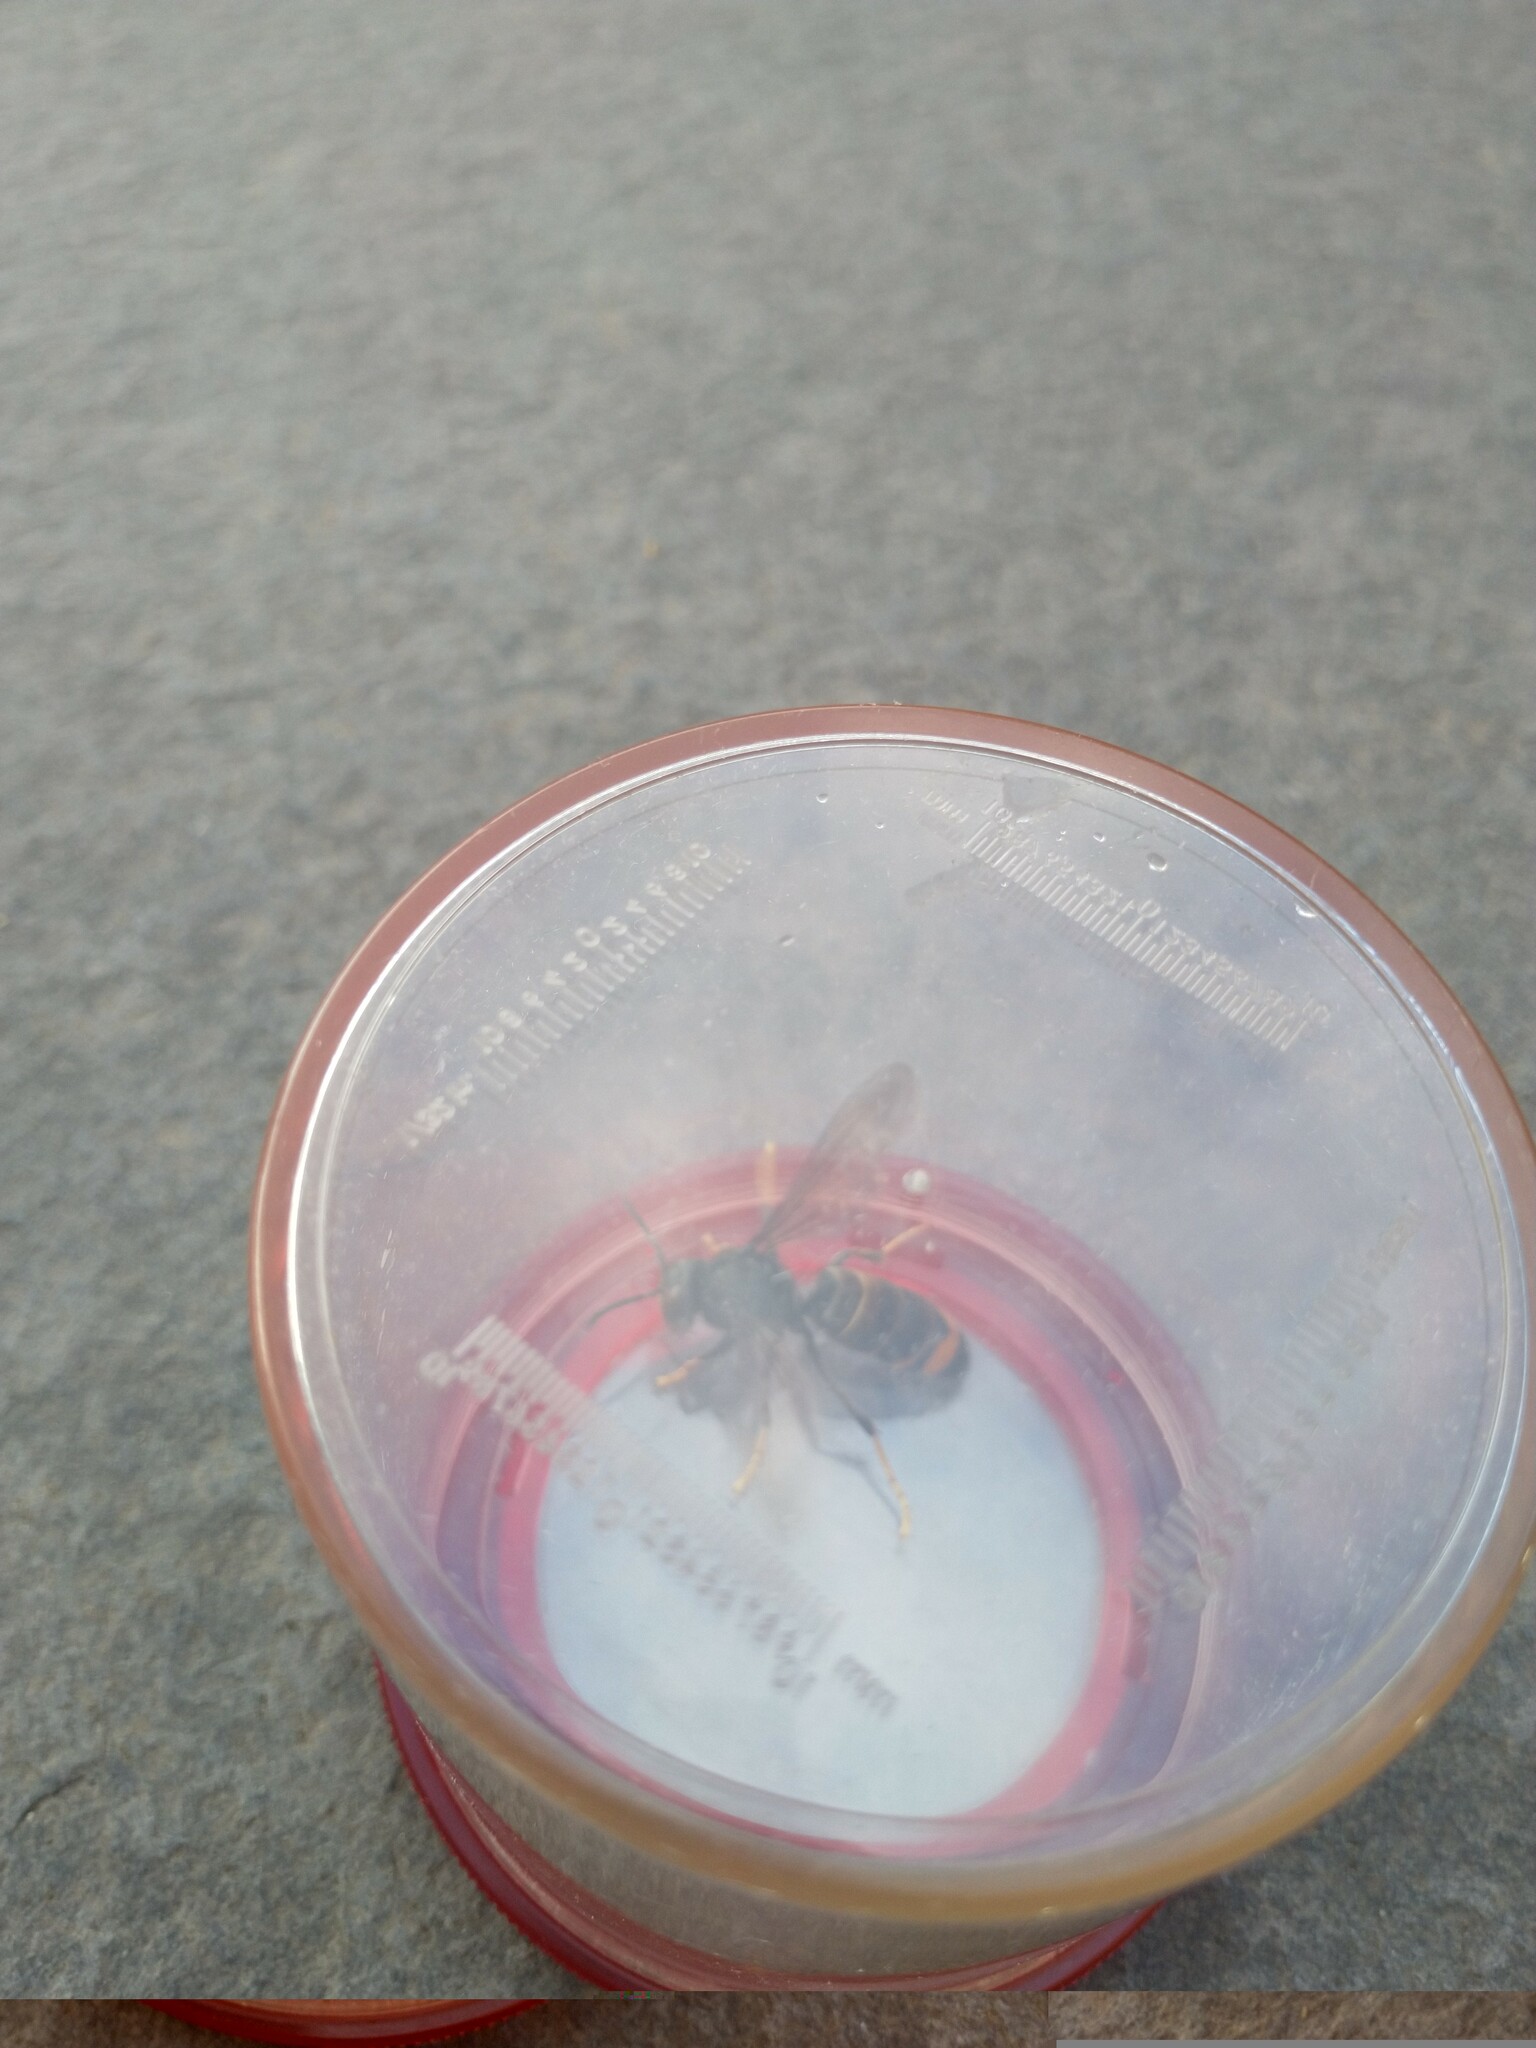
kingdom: Animalia
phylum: Arthropoda
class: Insecta
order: Hymenoptera
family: Vespidae
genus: Vespa
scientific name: Vespa velutina
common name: Asian hornet
